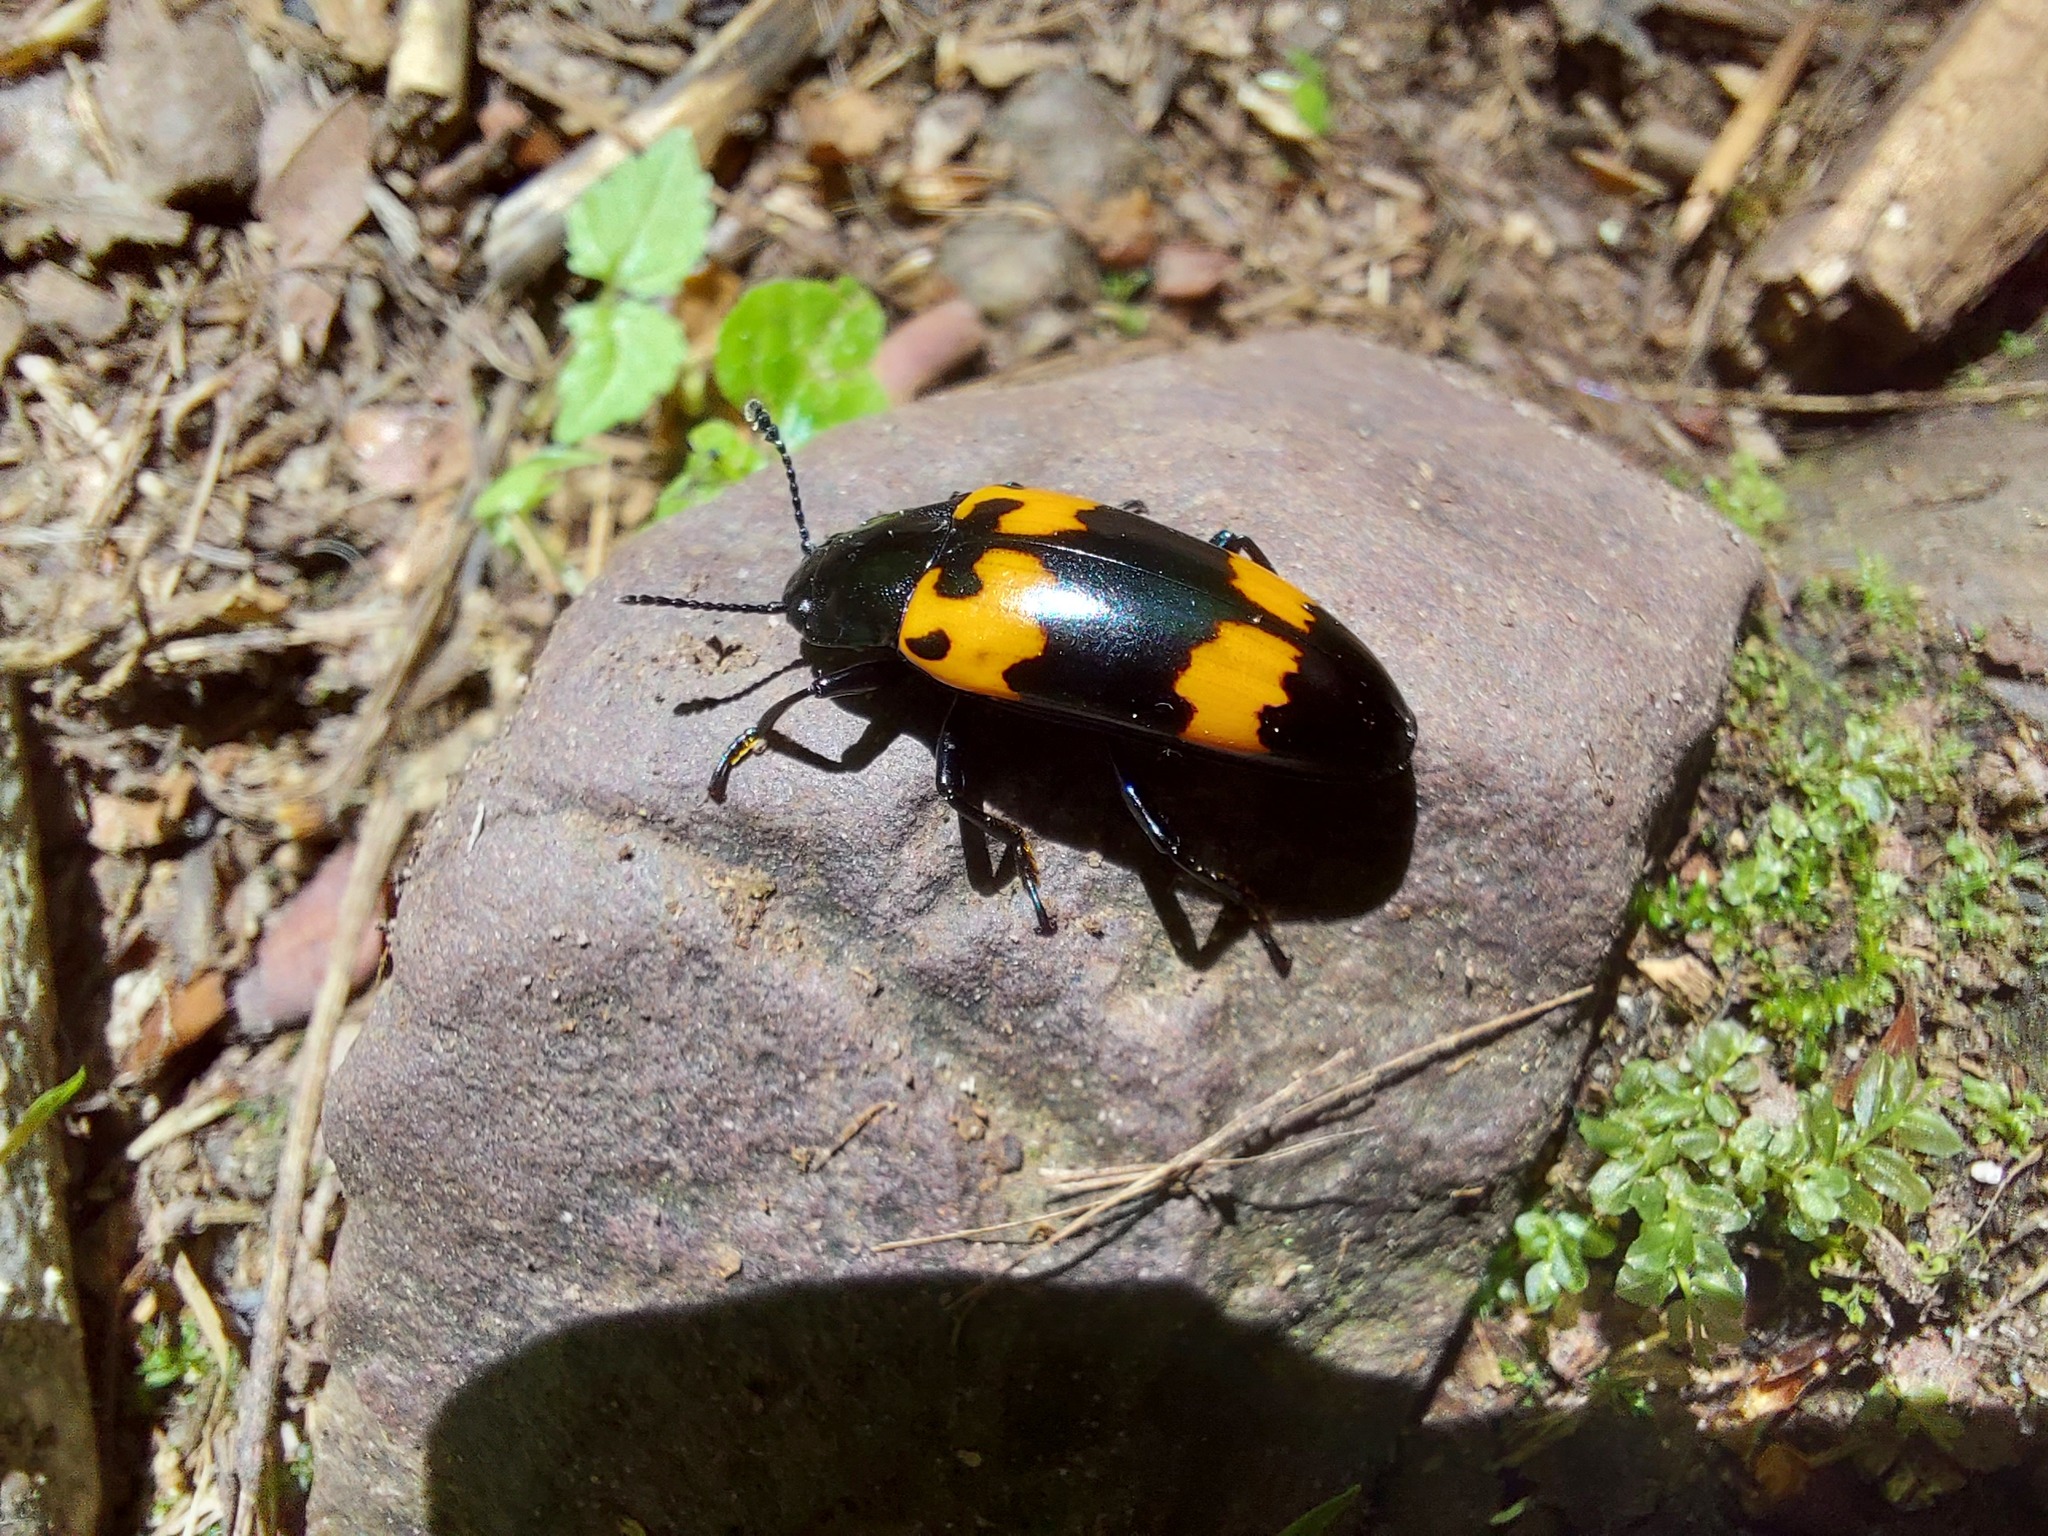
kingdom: Animalia
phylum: Arthropoda
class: Insecta
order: Coleoptera
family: Erotylidae
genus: Megalodacne
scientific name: Megalodacne heros
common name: Pleasing fungus beetle
